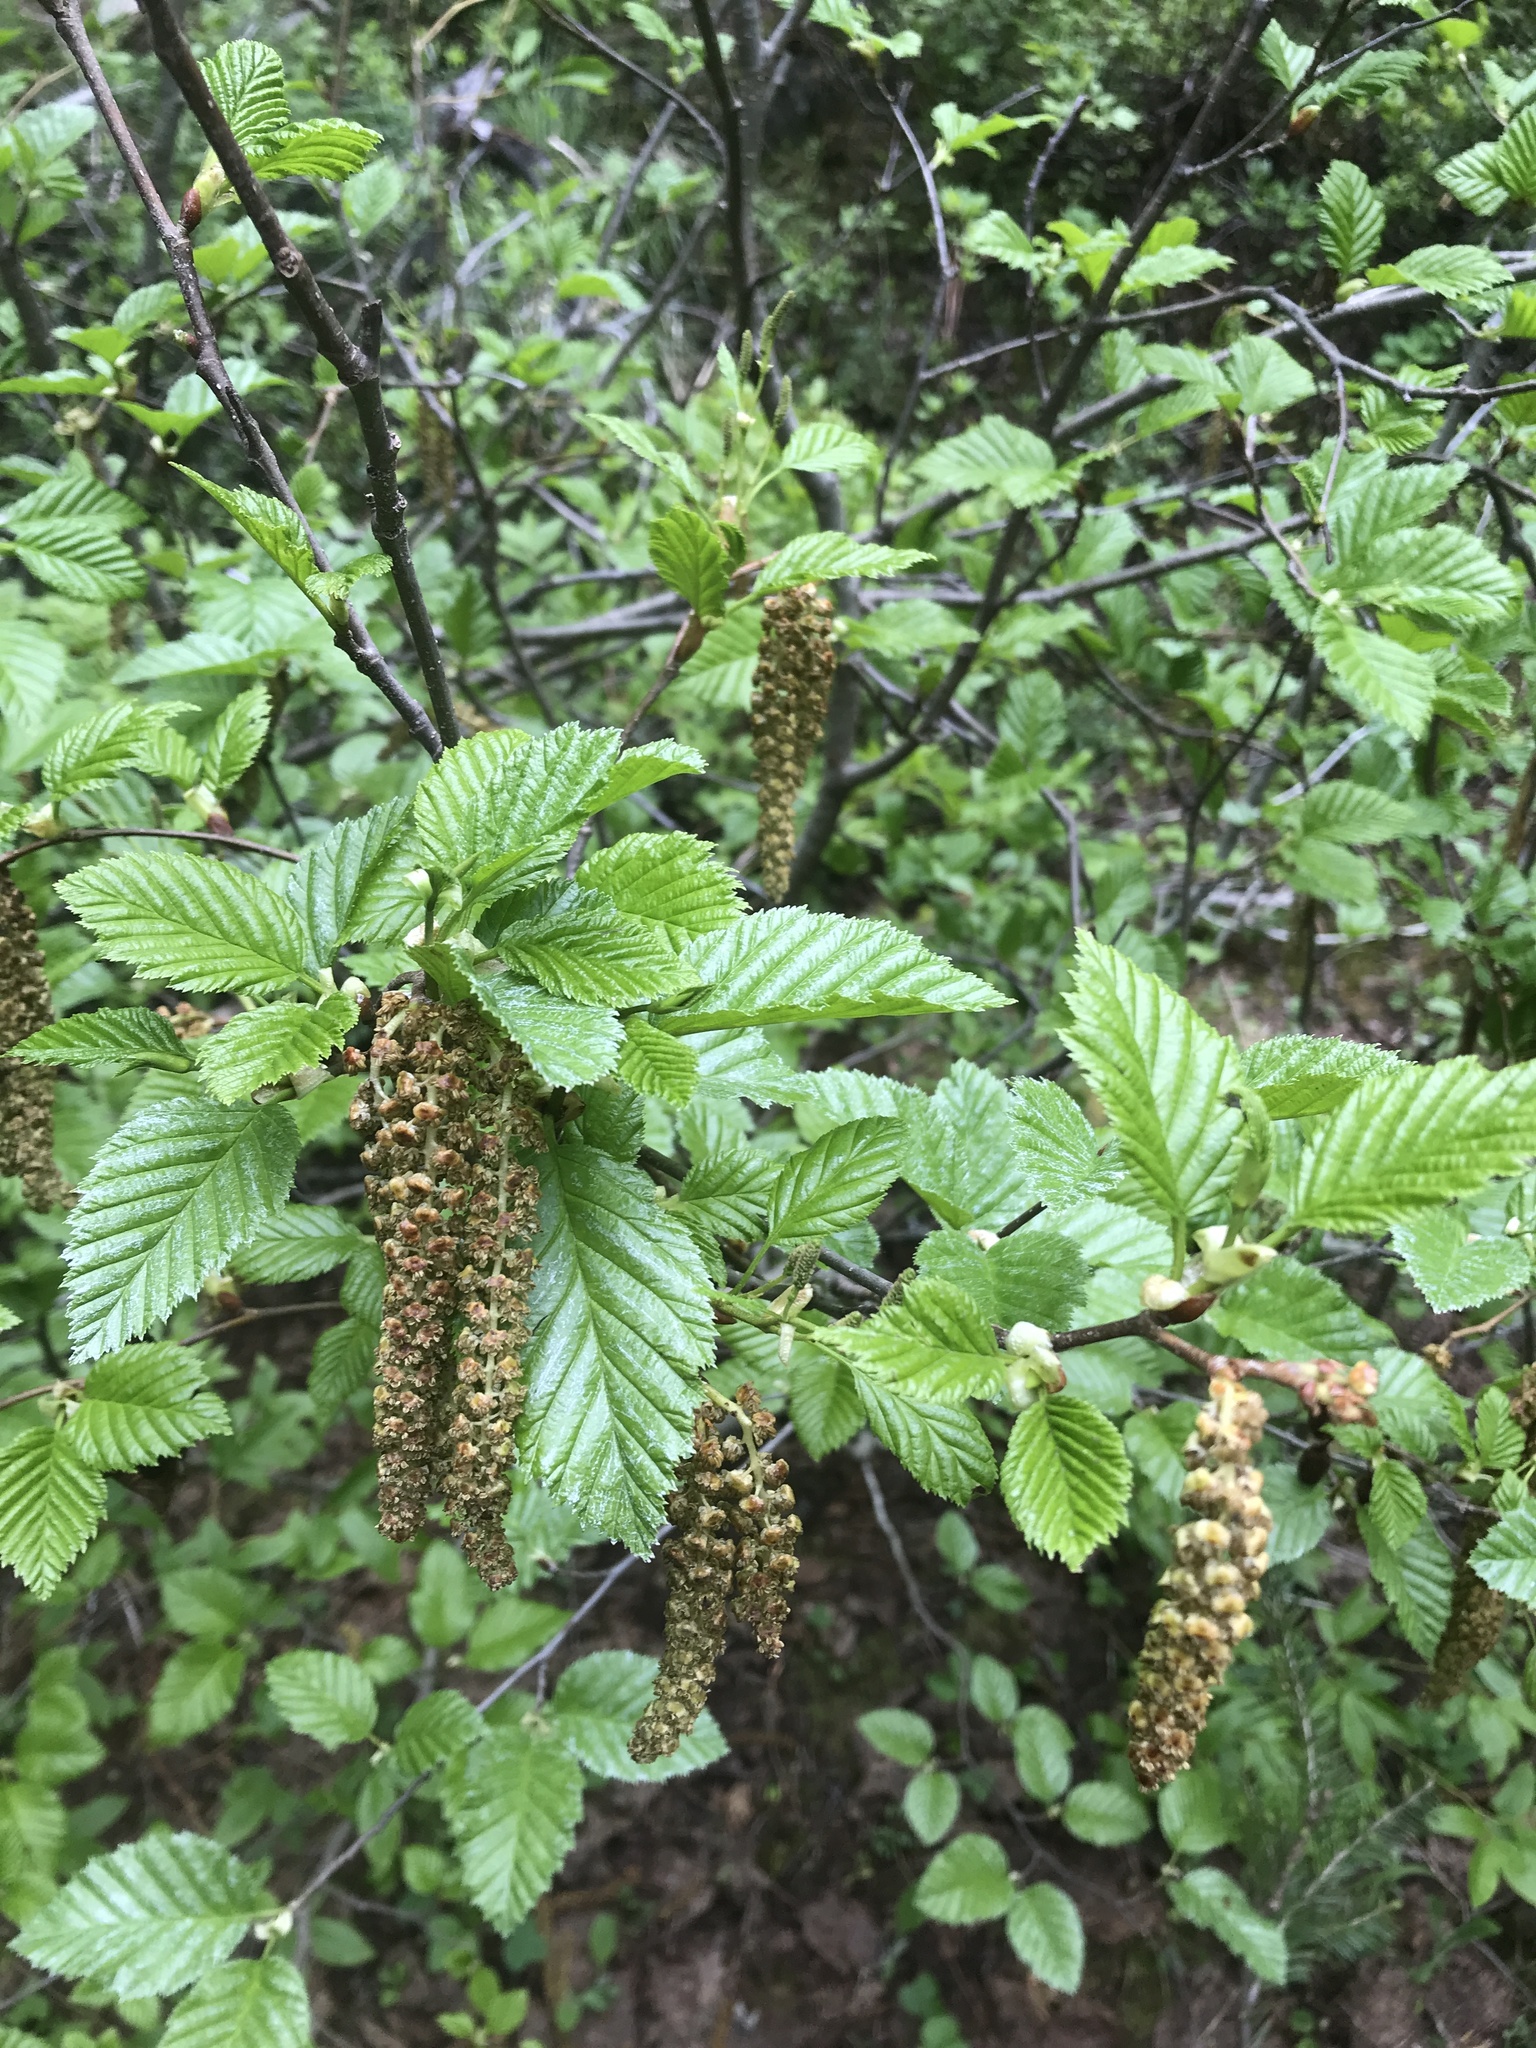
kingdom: Plantae
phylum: Tracheophyta
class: Magnoliopsida
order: Fagales
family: Betulaceae
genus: Alnus
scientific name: Alnus alnobetula
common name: Green alder
